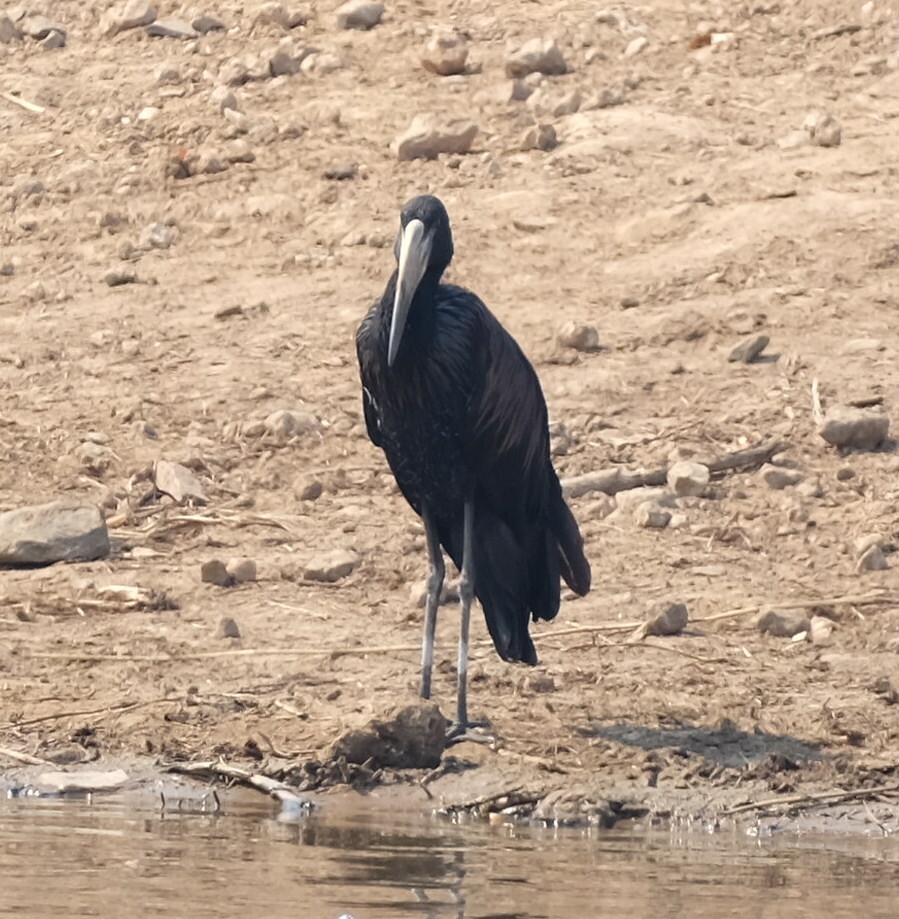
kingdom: Animalia
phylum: Chordata
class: Aves
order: Ciconiiformes
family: Ciconiidae
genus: Anastomus
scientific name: Anastomus lamelligerus
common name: African openbill
